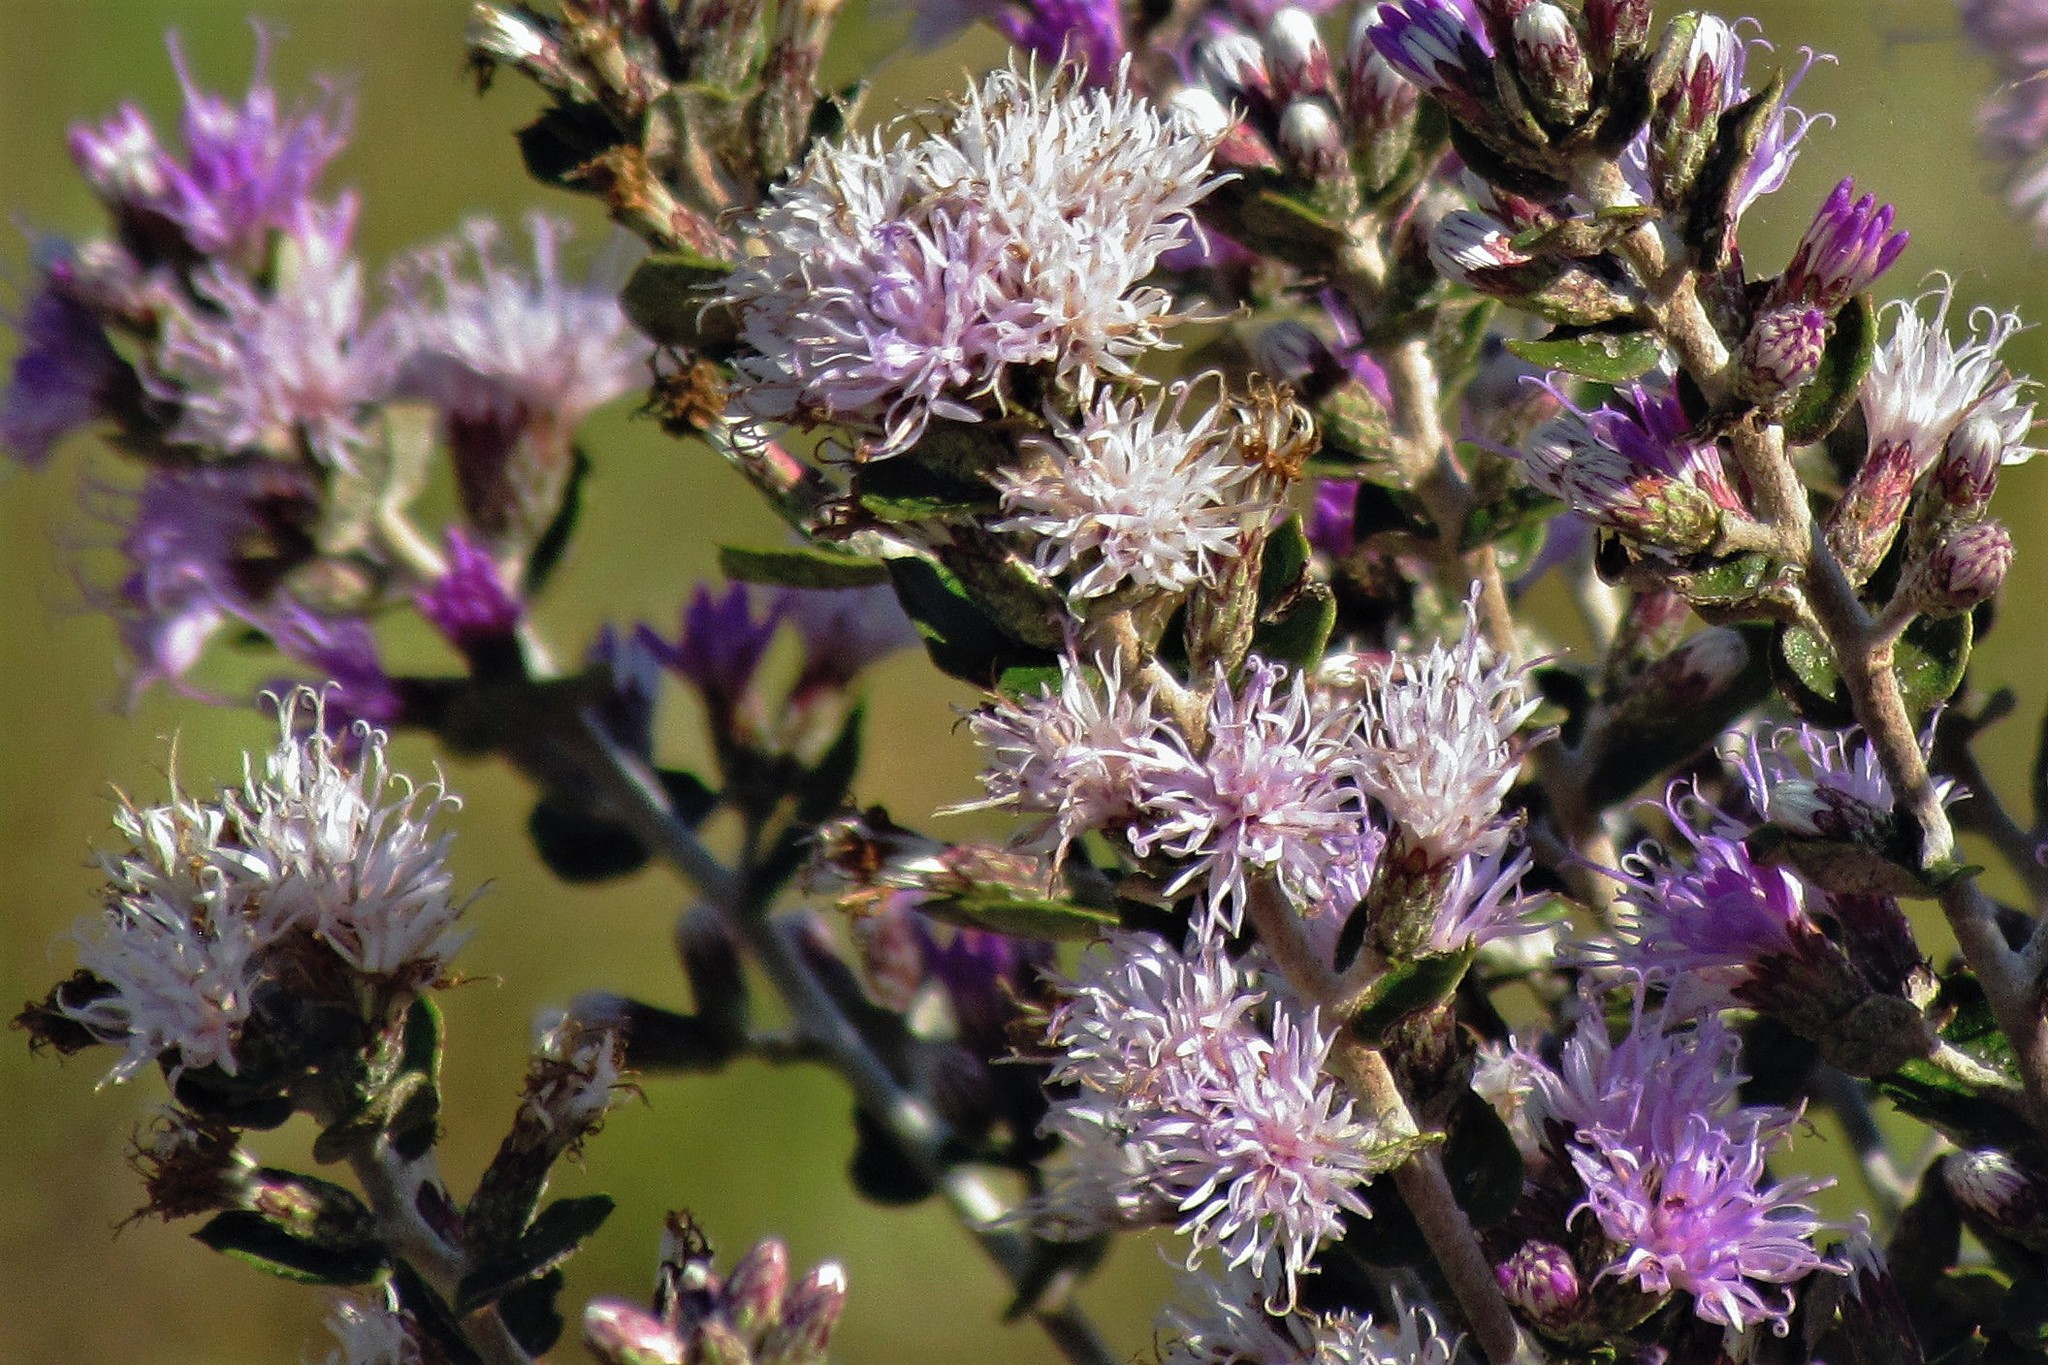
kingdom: Plantae
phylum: Tracheophyta
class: Magnoliopsida
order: Asterales
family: Asteraceae
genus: Vernonanthura
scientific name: Vernonanthura chamaedrys
